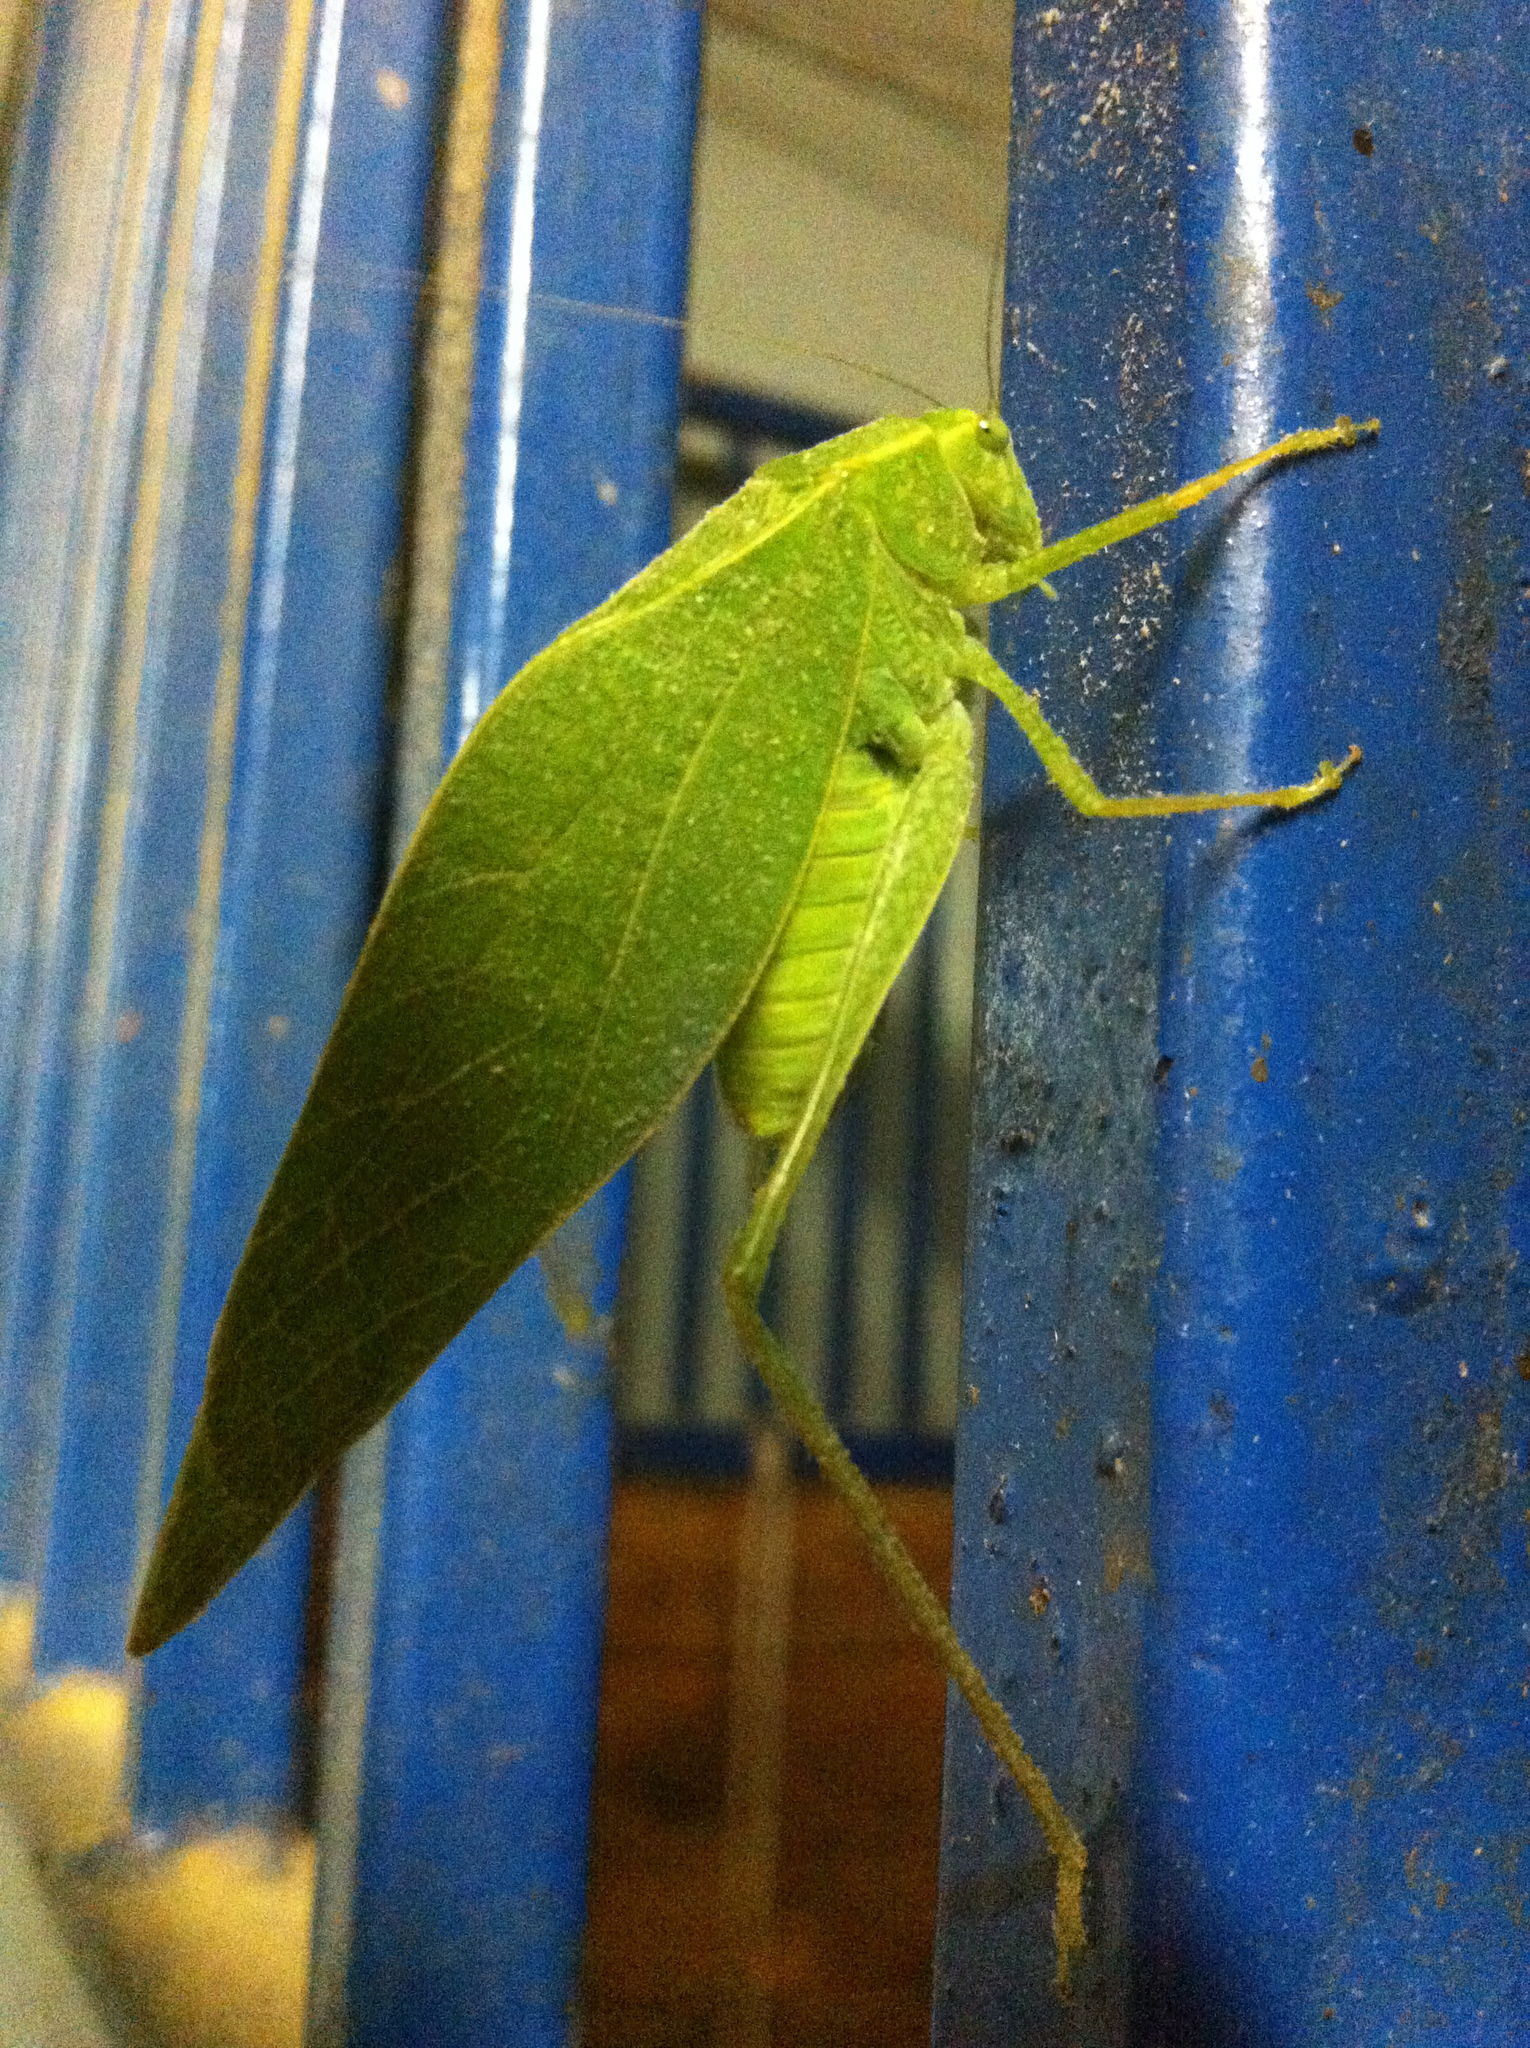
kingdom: Animalia
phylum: Arthropoda
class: Insecta
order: Orthoptera
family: Tettigoniidae
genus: Microcentrum
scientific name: Microcentrum rhombifolium
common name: Broad-winged katydid
